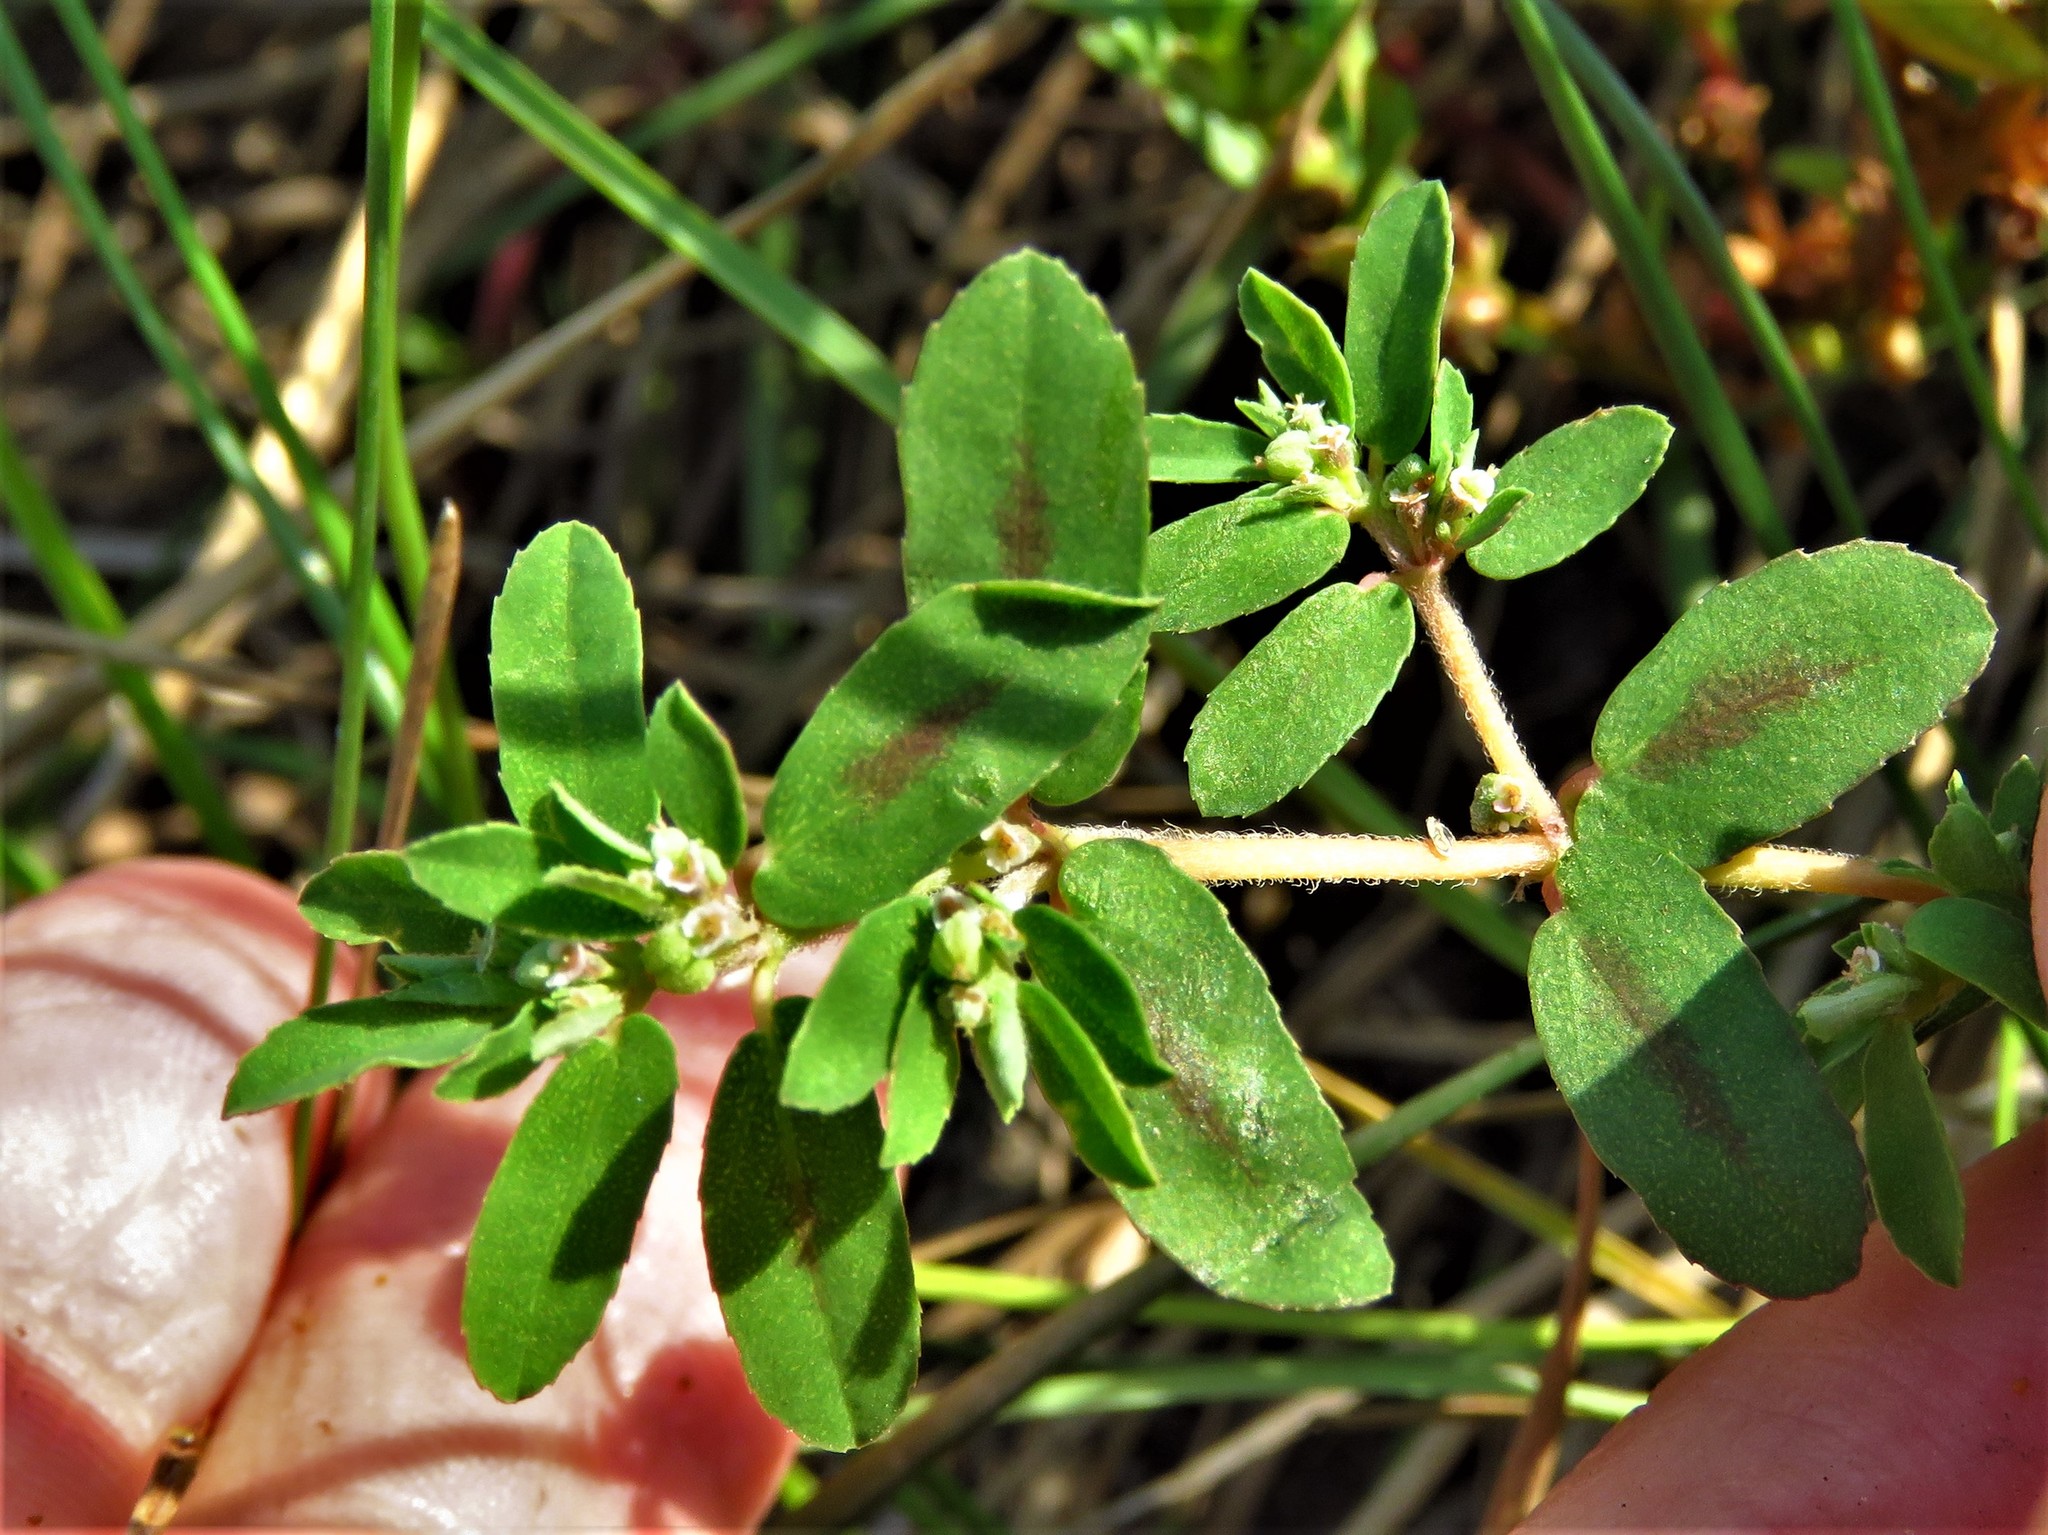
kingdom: Plantae
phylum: Tracheophyta
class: Magnoliopsida
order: Malpighiales
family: Euphorbiaceae
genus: Euphorbia
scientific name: Euphorbia maculata
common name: Spotted spurge
